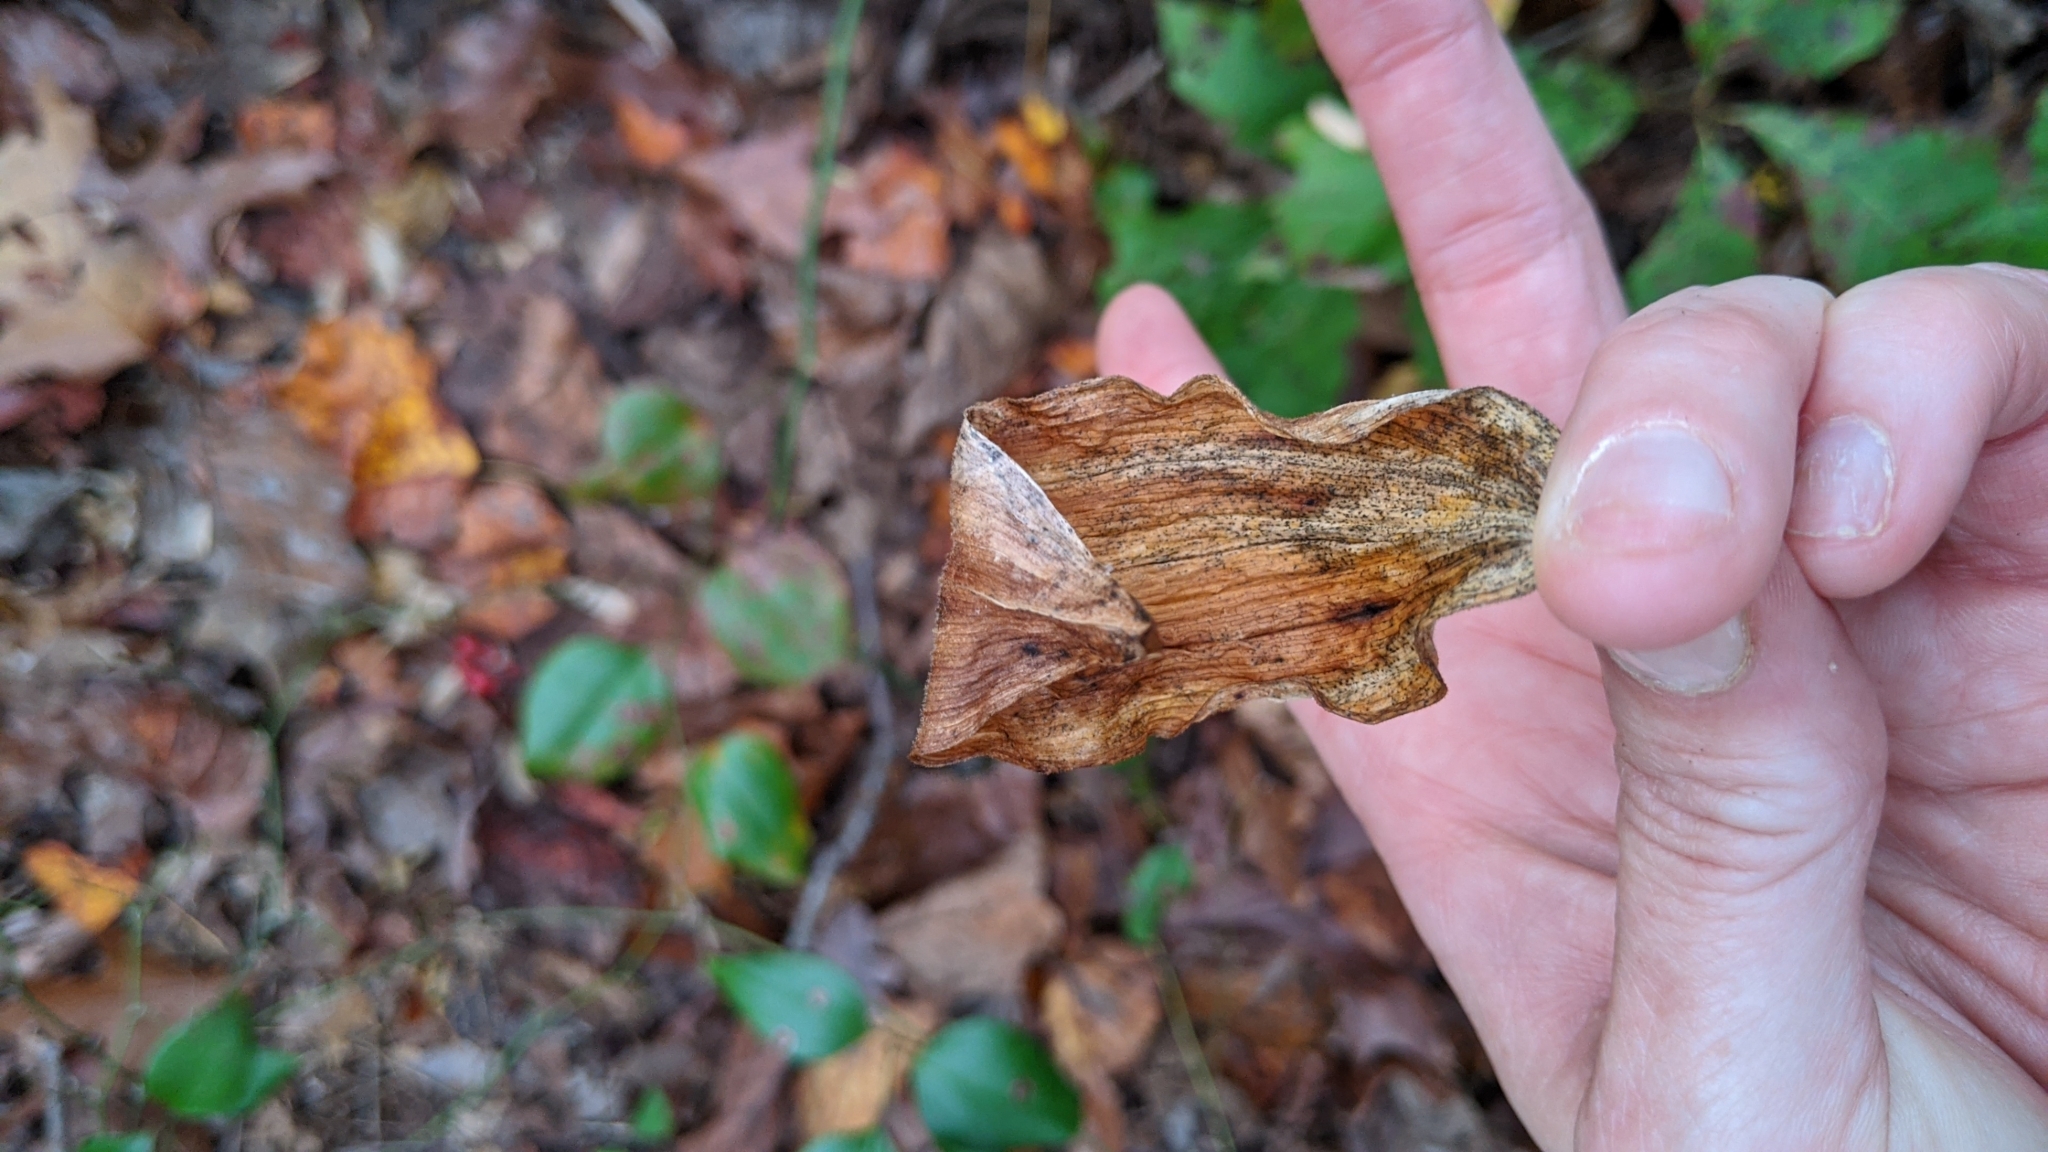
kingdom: Plantae
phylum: Tracheophyta
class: Liliopsida
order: Asparagales
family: Asparagaceae
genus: Maianthemum
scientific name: Maianthemum racemosum
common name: False spikenard
